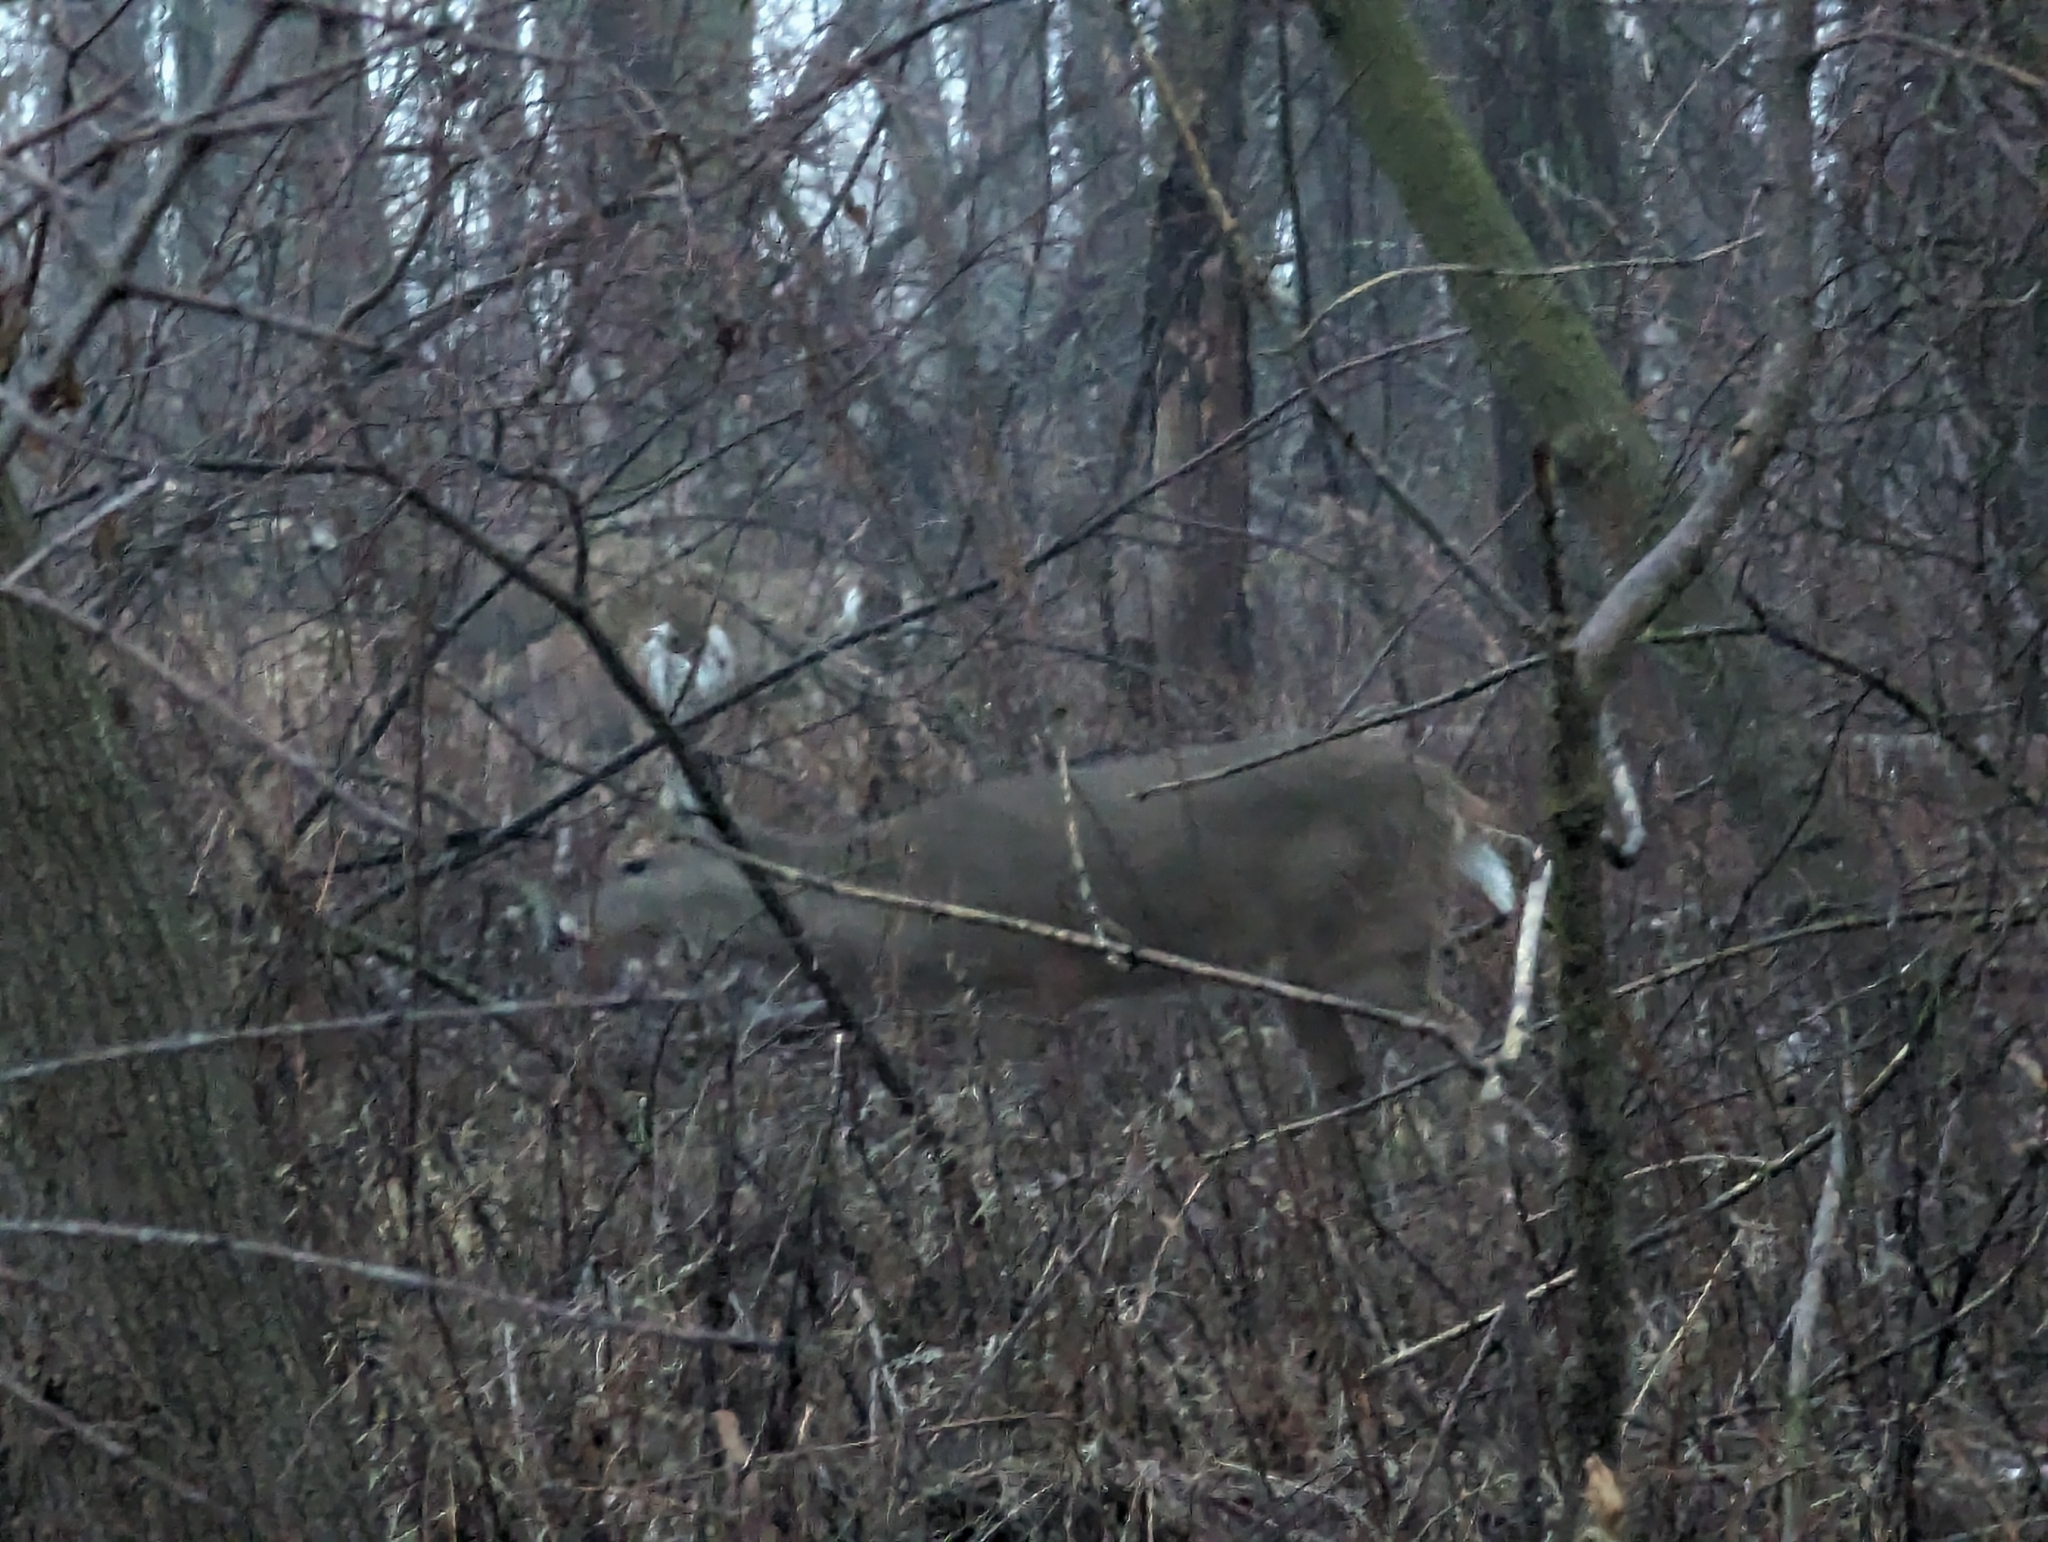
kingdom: Animalia
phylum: Chordata
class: Mammalia
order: Artiodactyla
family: Cervidae
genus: Odocoileus
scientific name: Odocoileus virginianus
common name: White-tailed deer
